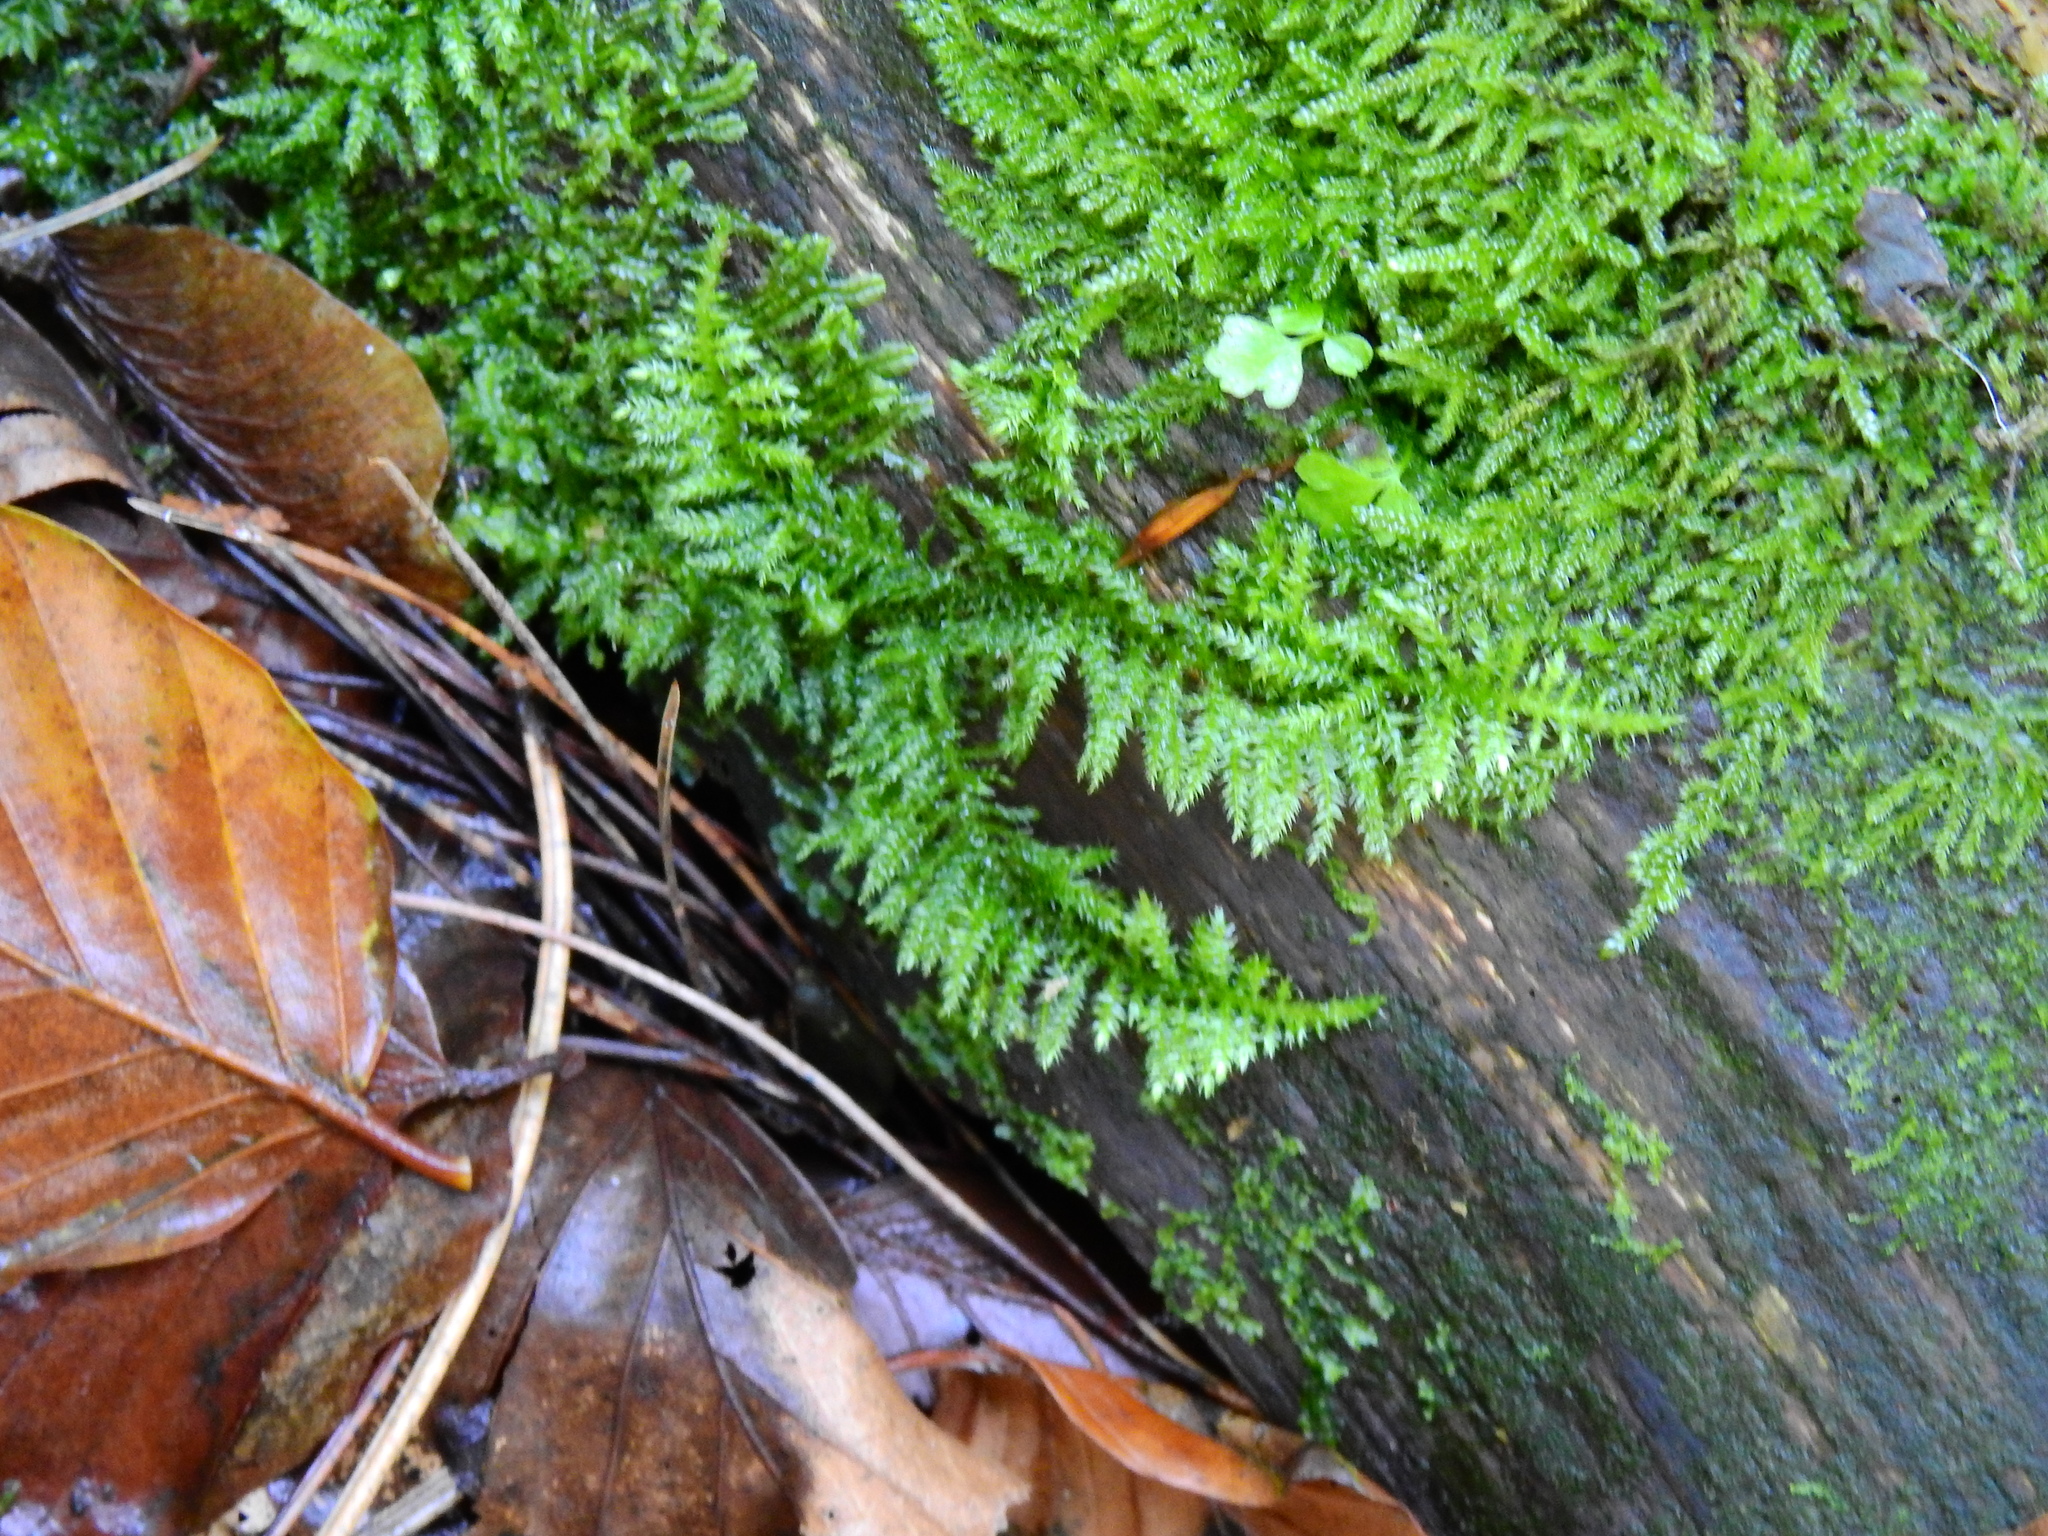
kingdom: Plantae
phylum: Bryophyta
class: Bryopsida
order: Hypnales
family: Brachytheciaceae
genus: Kindbergia
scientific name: Kindbergia praelonga
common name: Slender beaked moss
